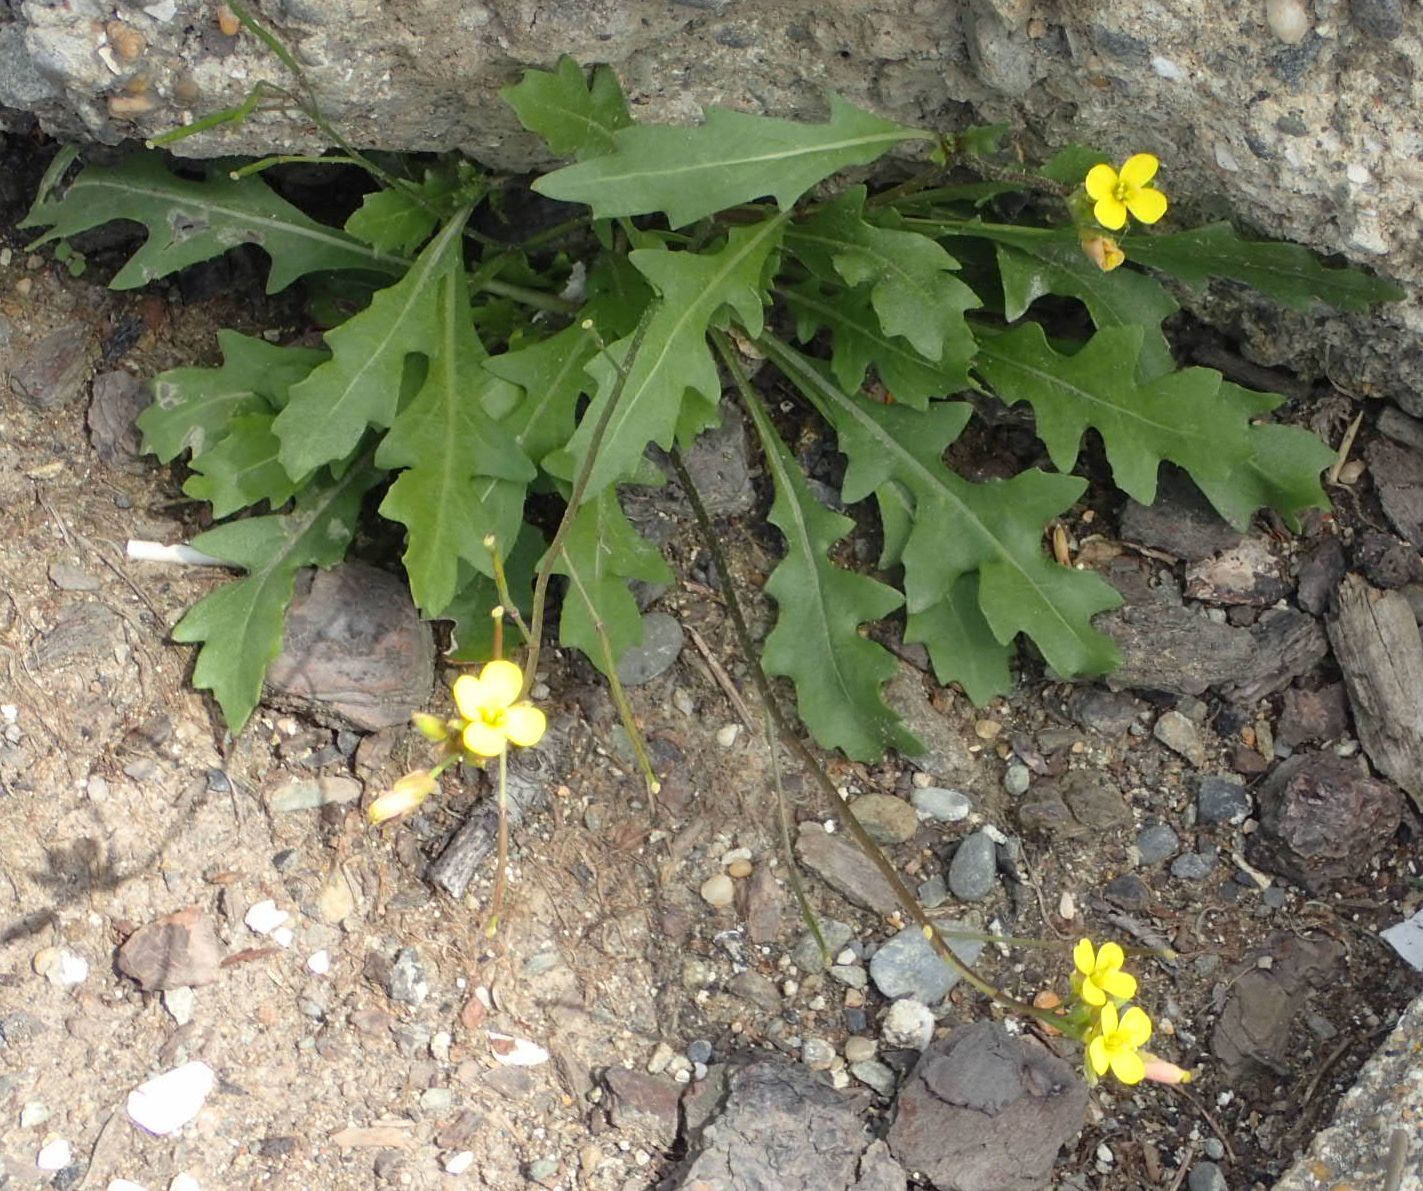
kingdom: Plantae
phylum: Tracheophyta
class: Magnoliopsida
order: Brassicales
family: Brassicaceae
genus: Diplotaxis
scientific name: Diplotaxis muralis
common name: Annual wall-rocket
